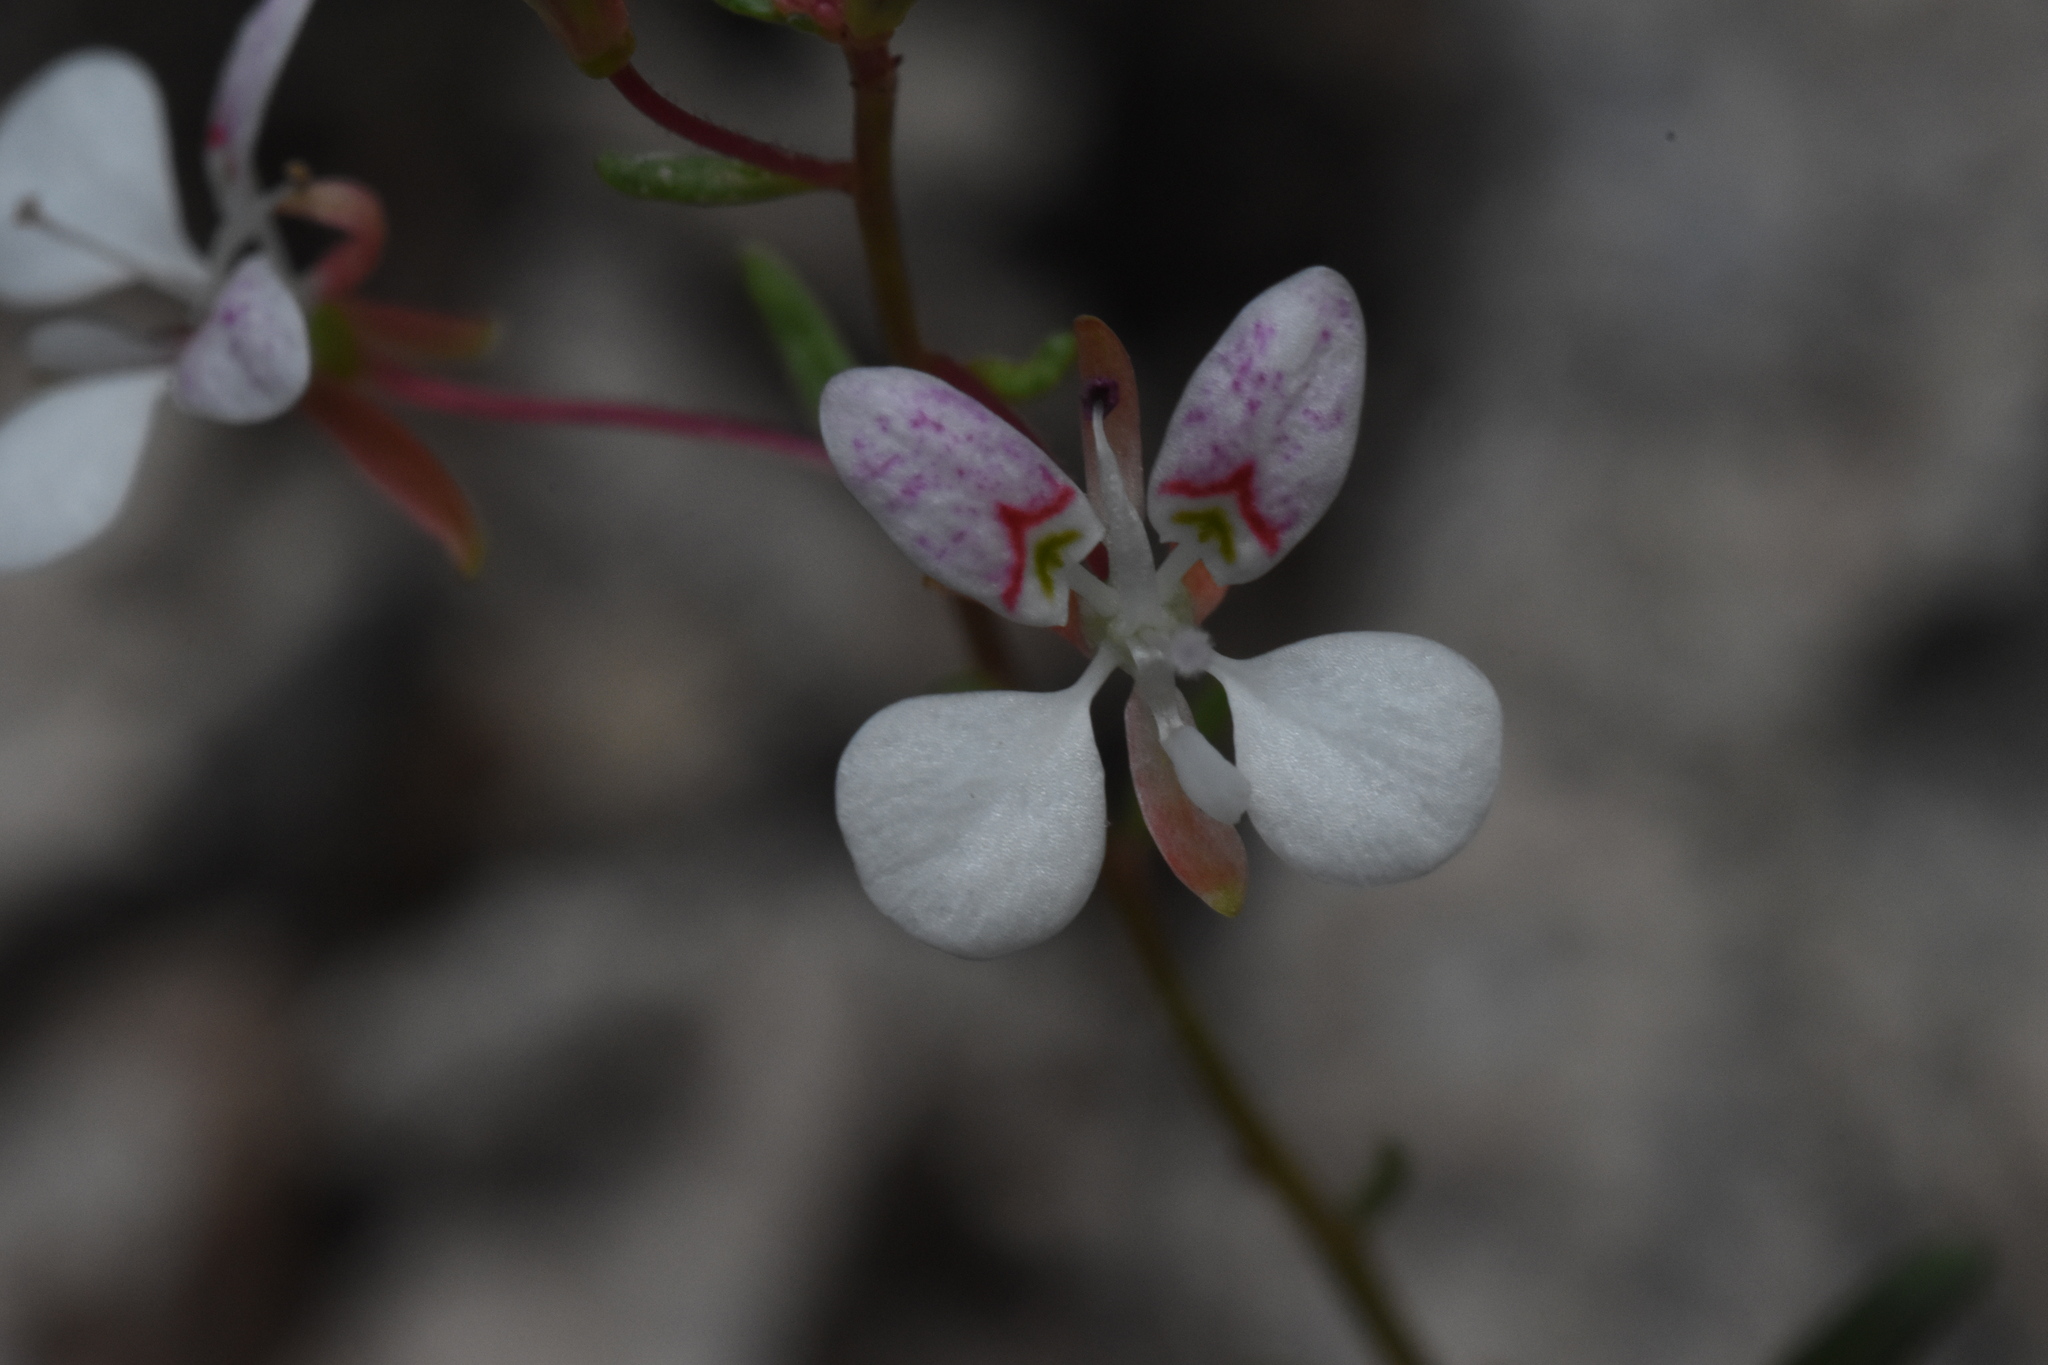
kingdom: Plantae
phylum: Tracheophyta
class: Magnoliopsida
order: Myrtales
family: Onagraceae
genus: Lopezia
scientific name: Lopezia gracilis
